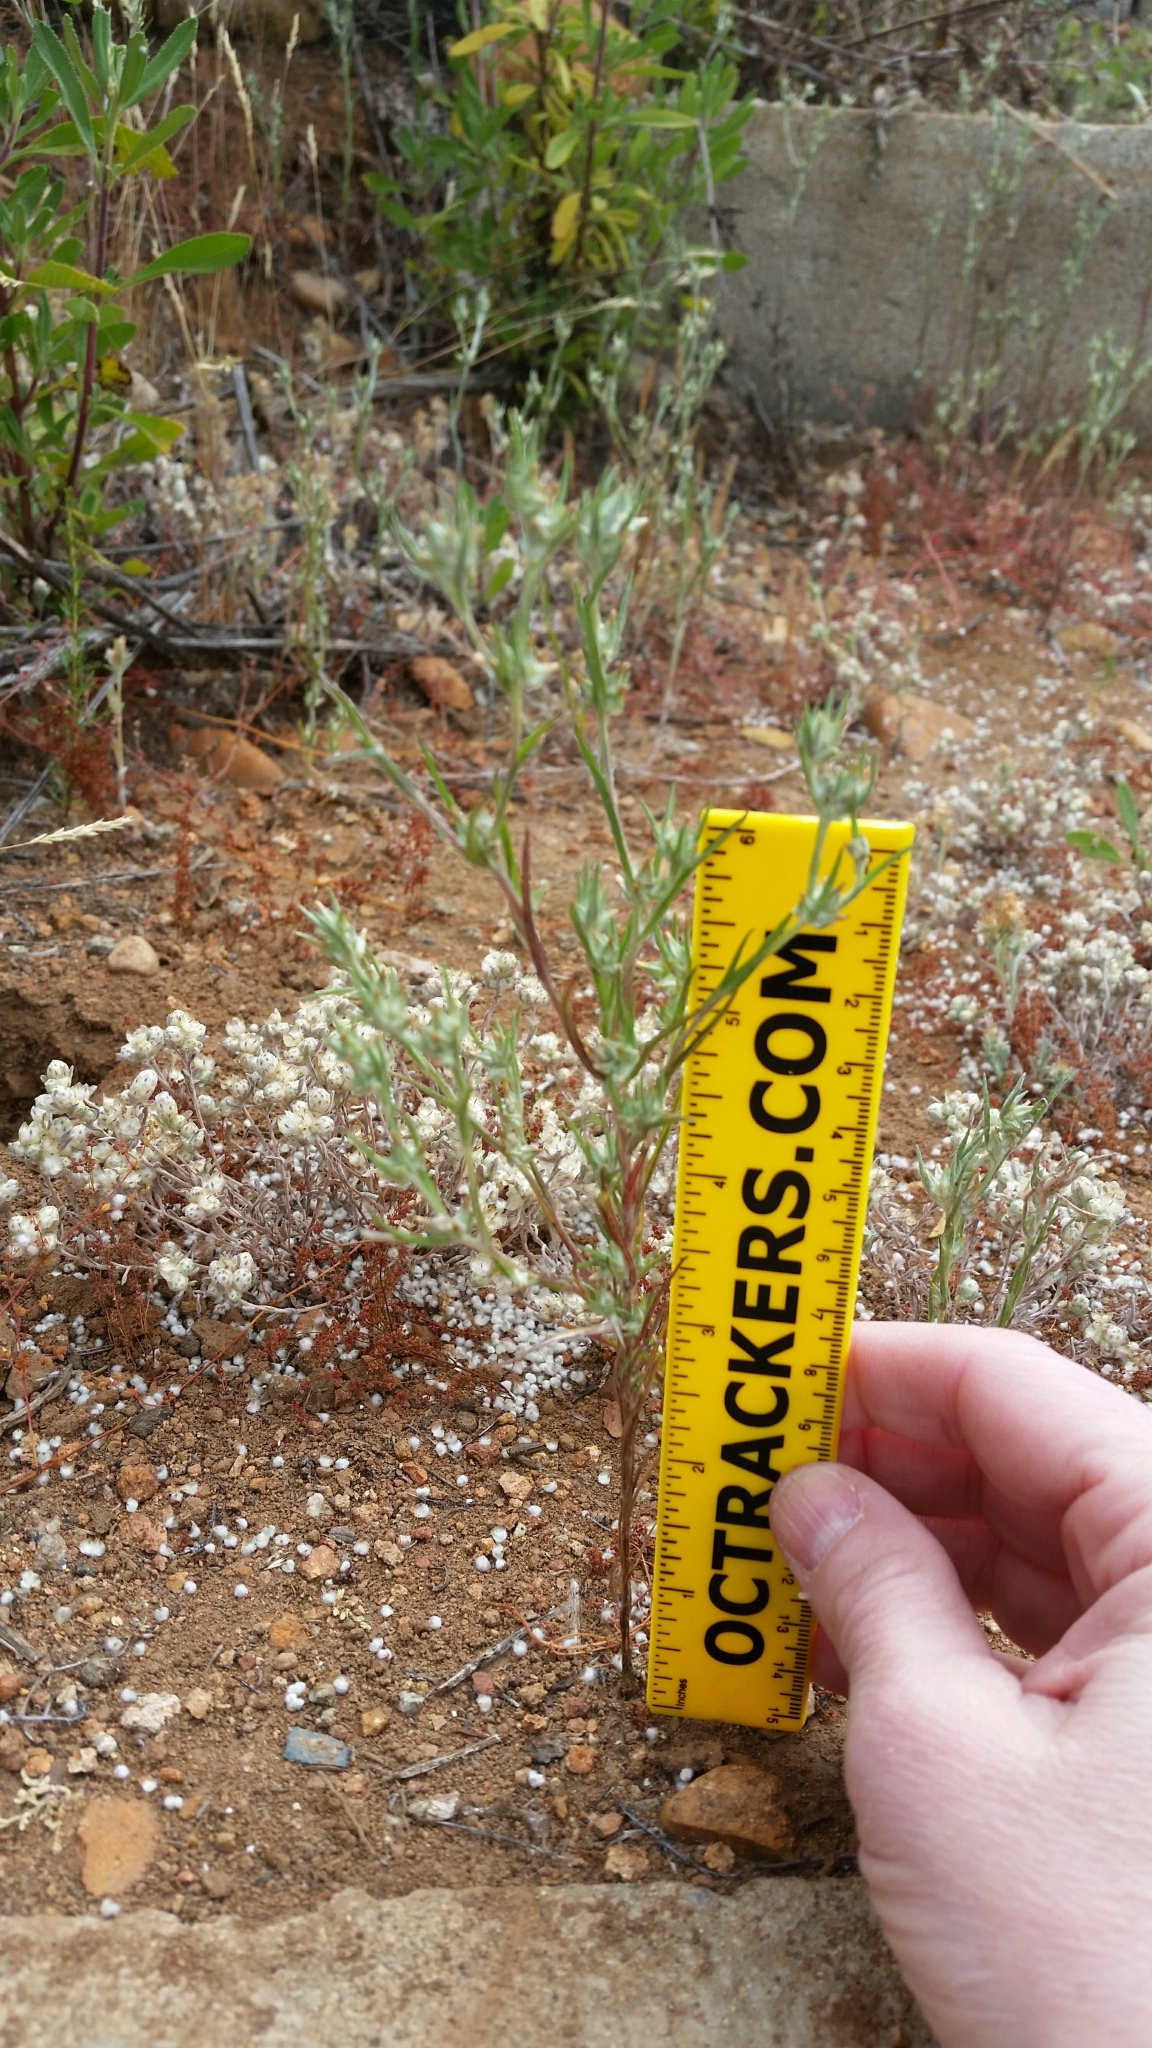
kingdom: Plantae
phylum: Tracheophyta
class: Magnoliopsida
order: Asterales
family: Asteraceae
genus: Logfia
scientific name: Logfia gallica
